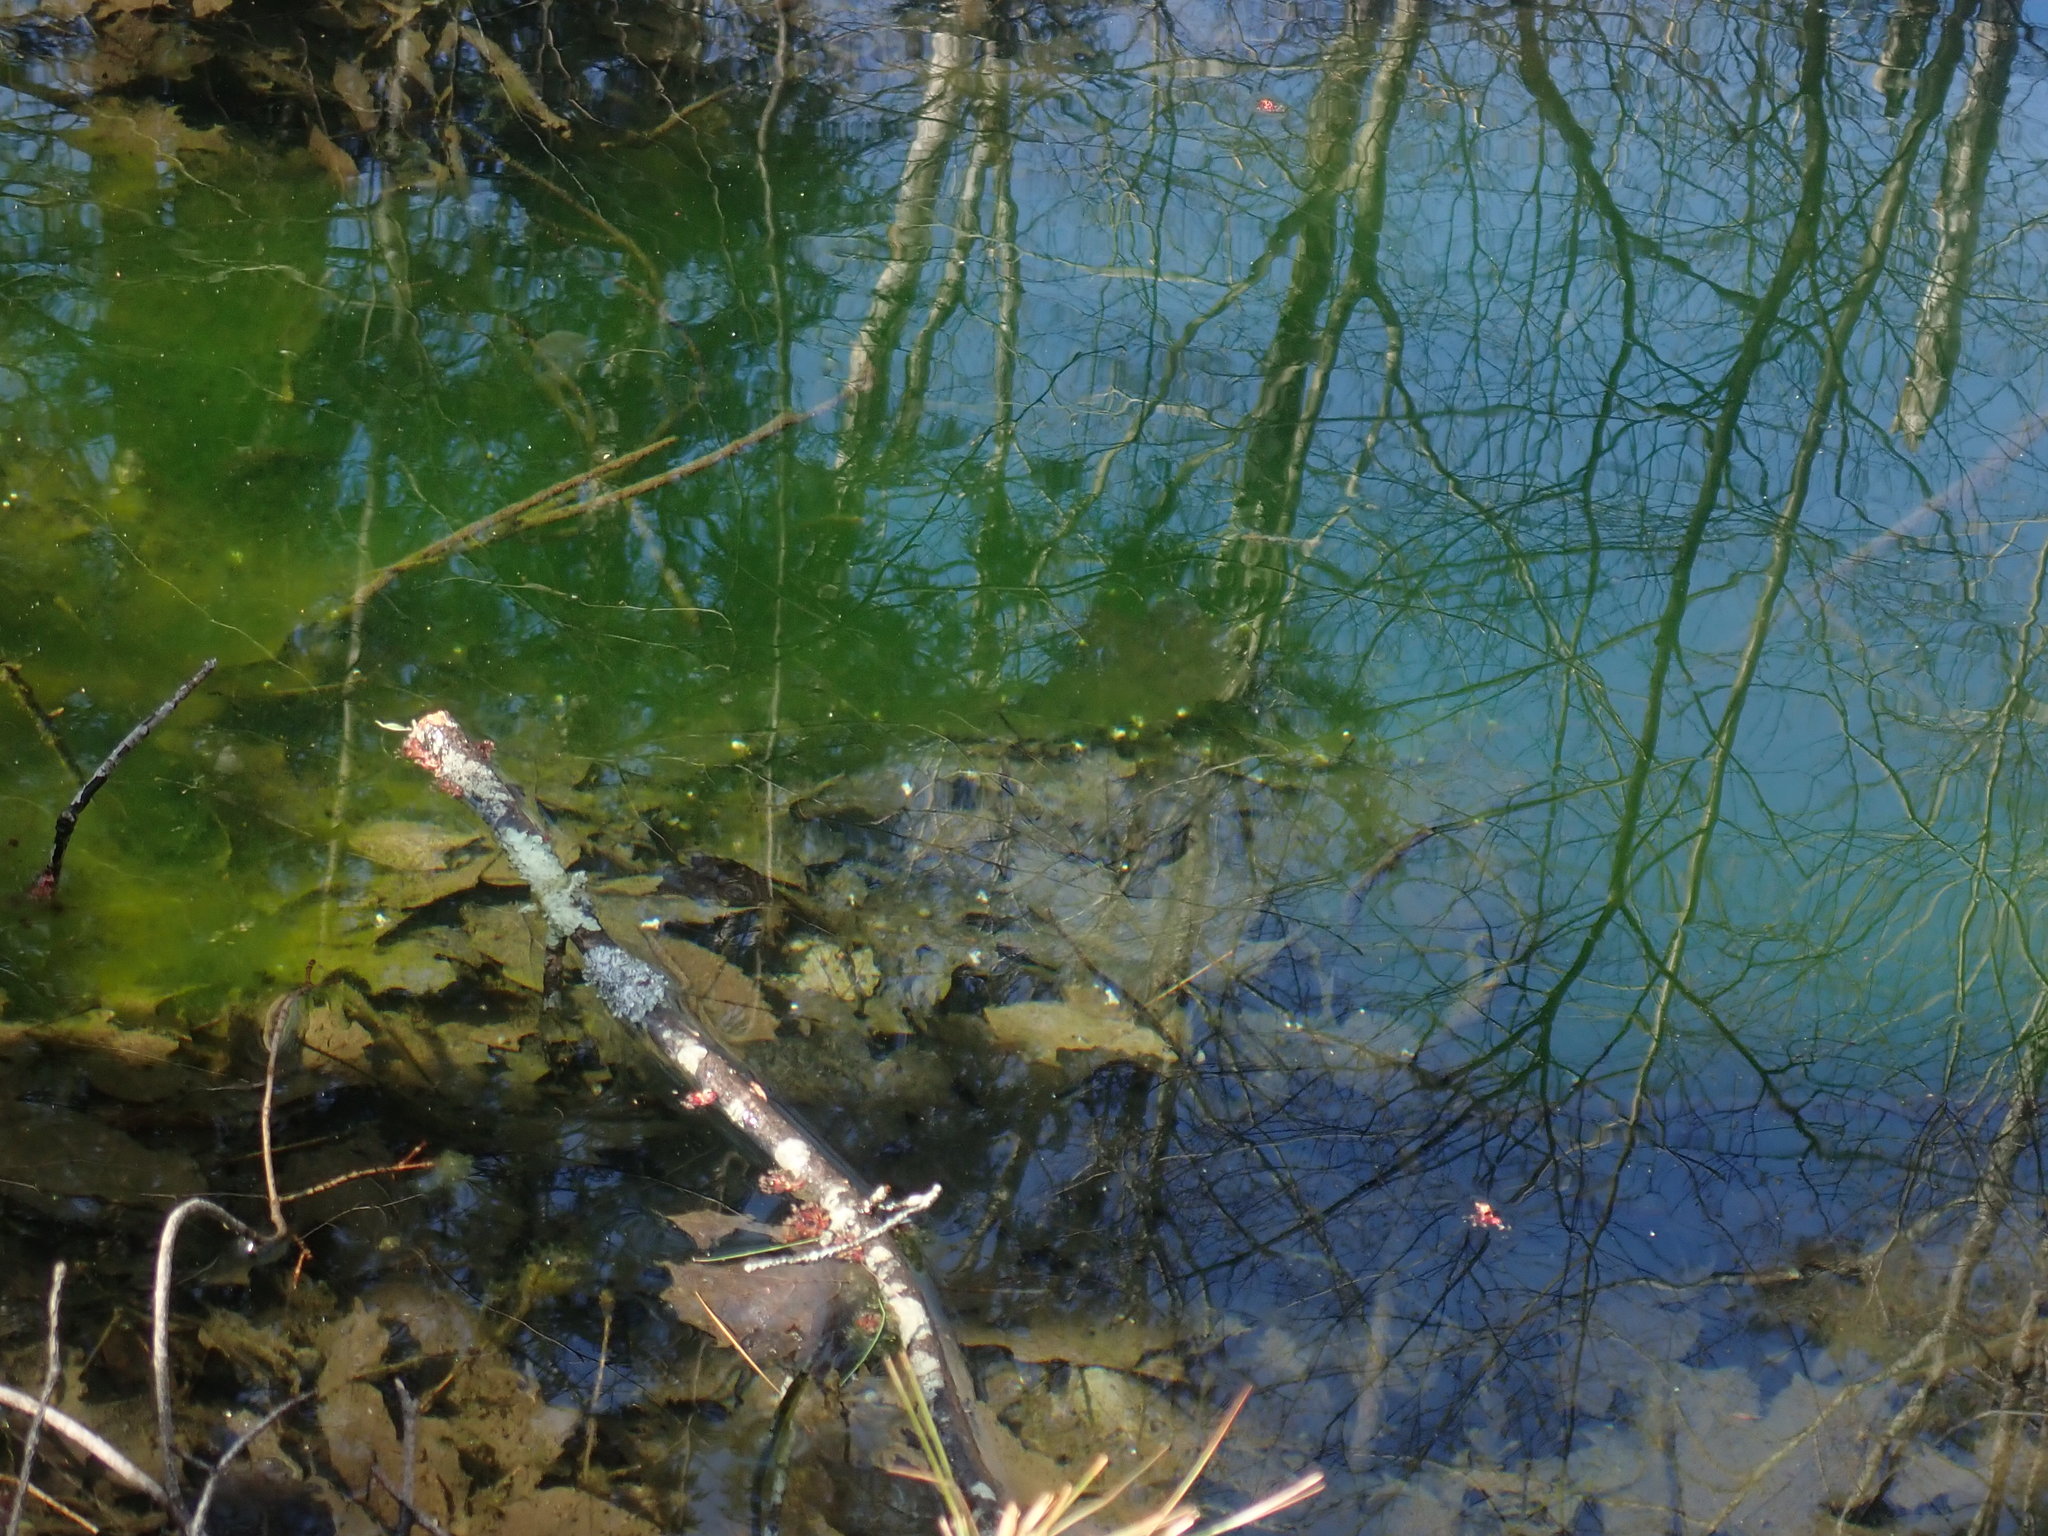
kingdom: Animalia
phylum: Chordata
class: Amphibia
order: Caudata
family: Ambystomatidae
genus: Ambystoma
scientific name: Ambystoma
